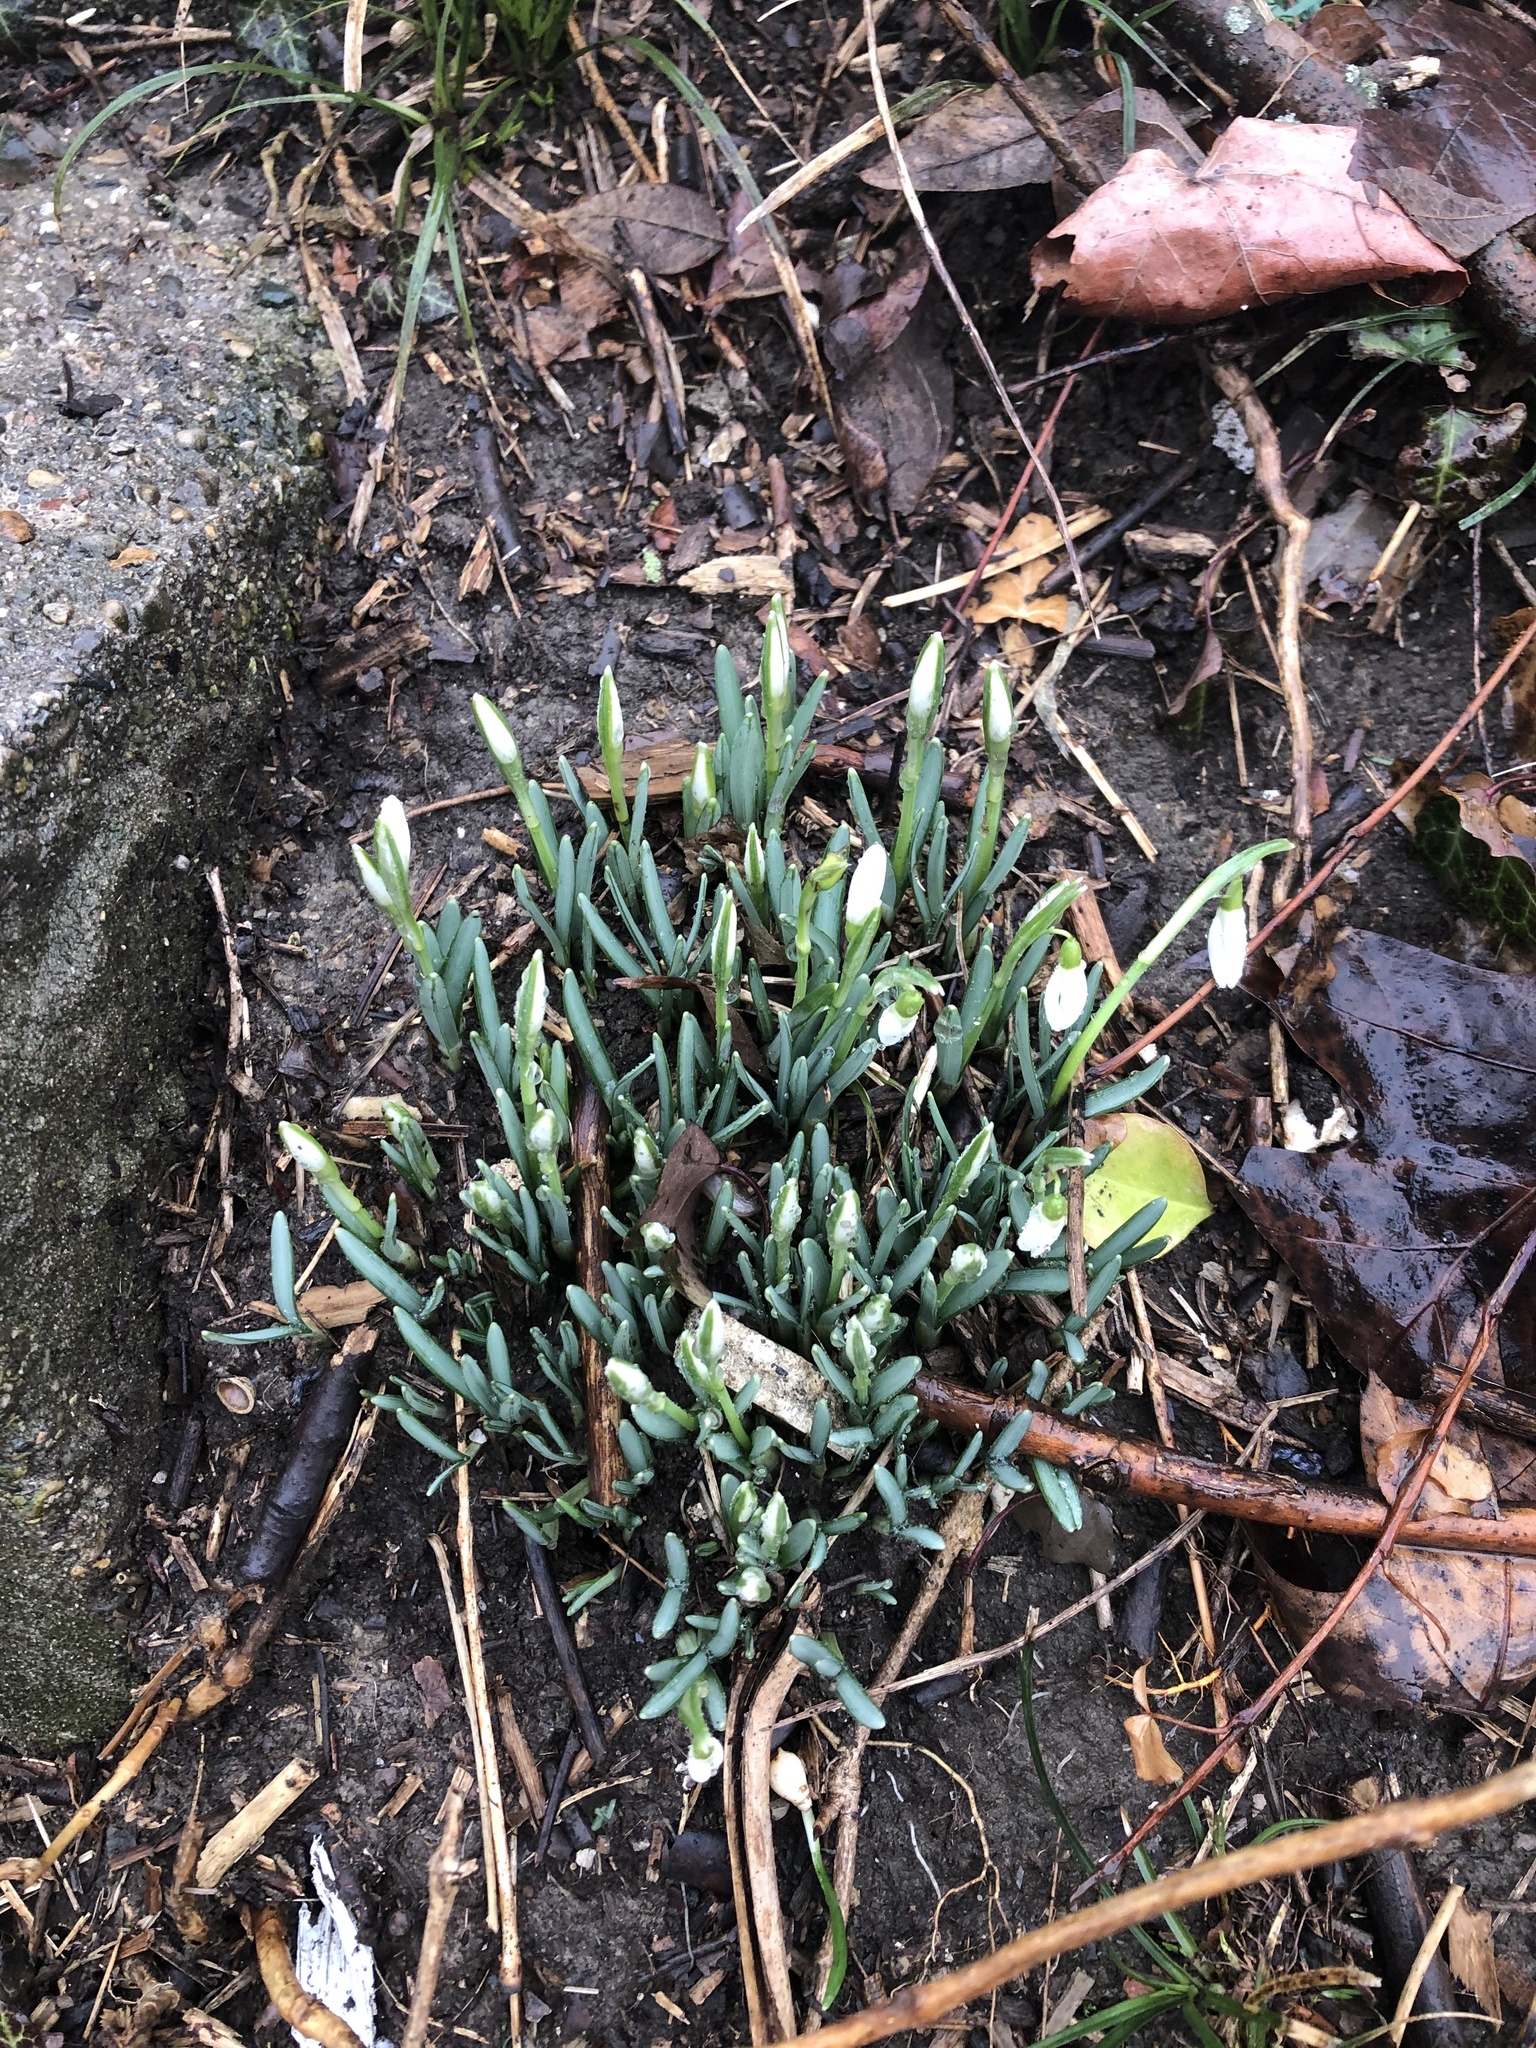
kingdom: Plantae
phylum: Tracheophyta
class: Liliopsida
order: Asparagales
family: Amaryllidaceae
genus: Galanthus
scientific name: Galanthus nivalis
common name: Snowdrop
